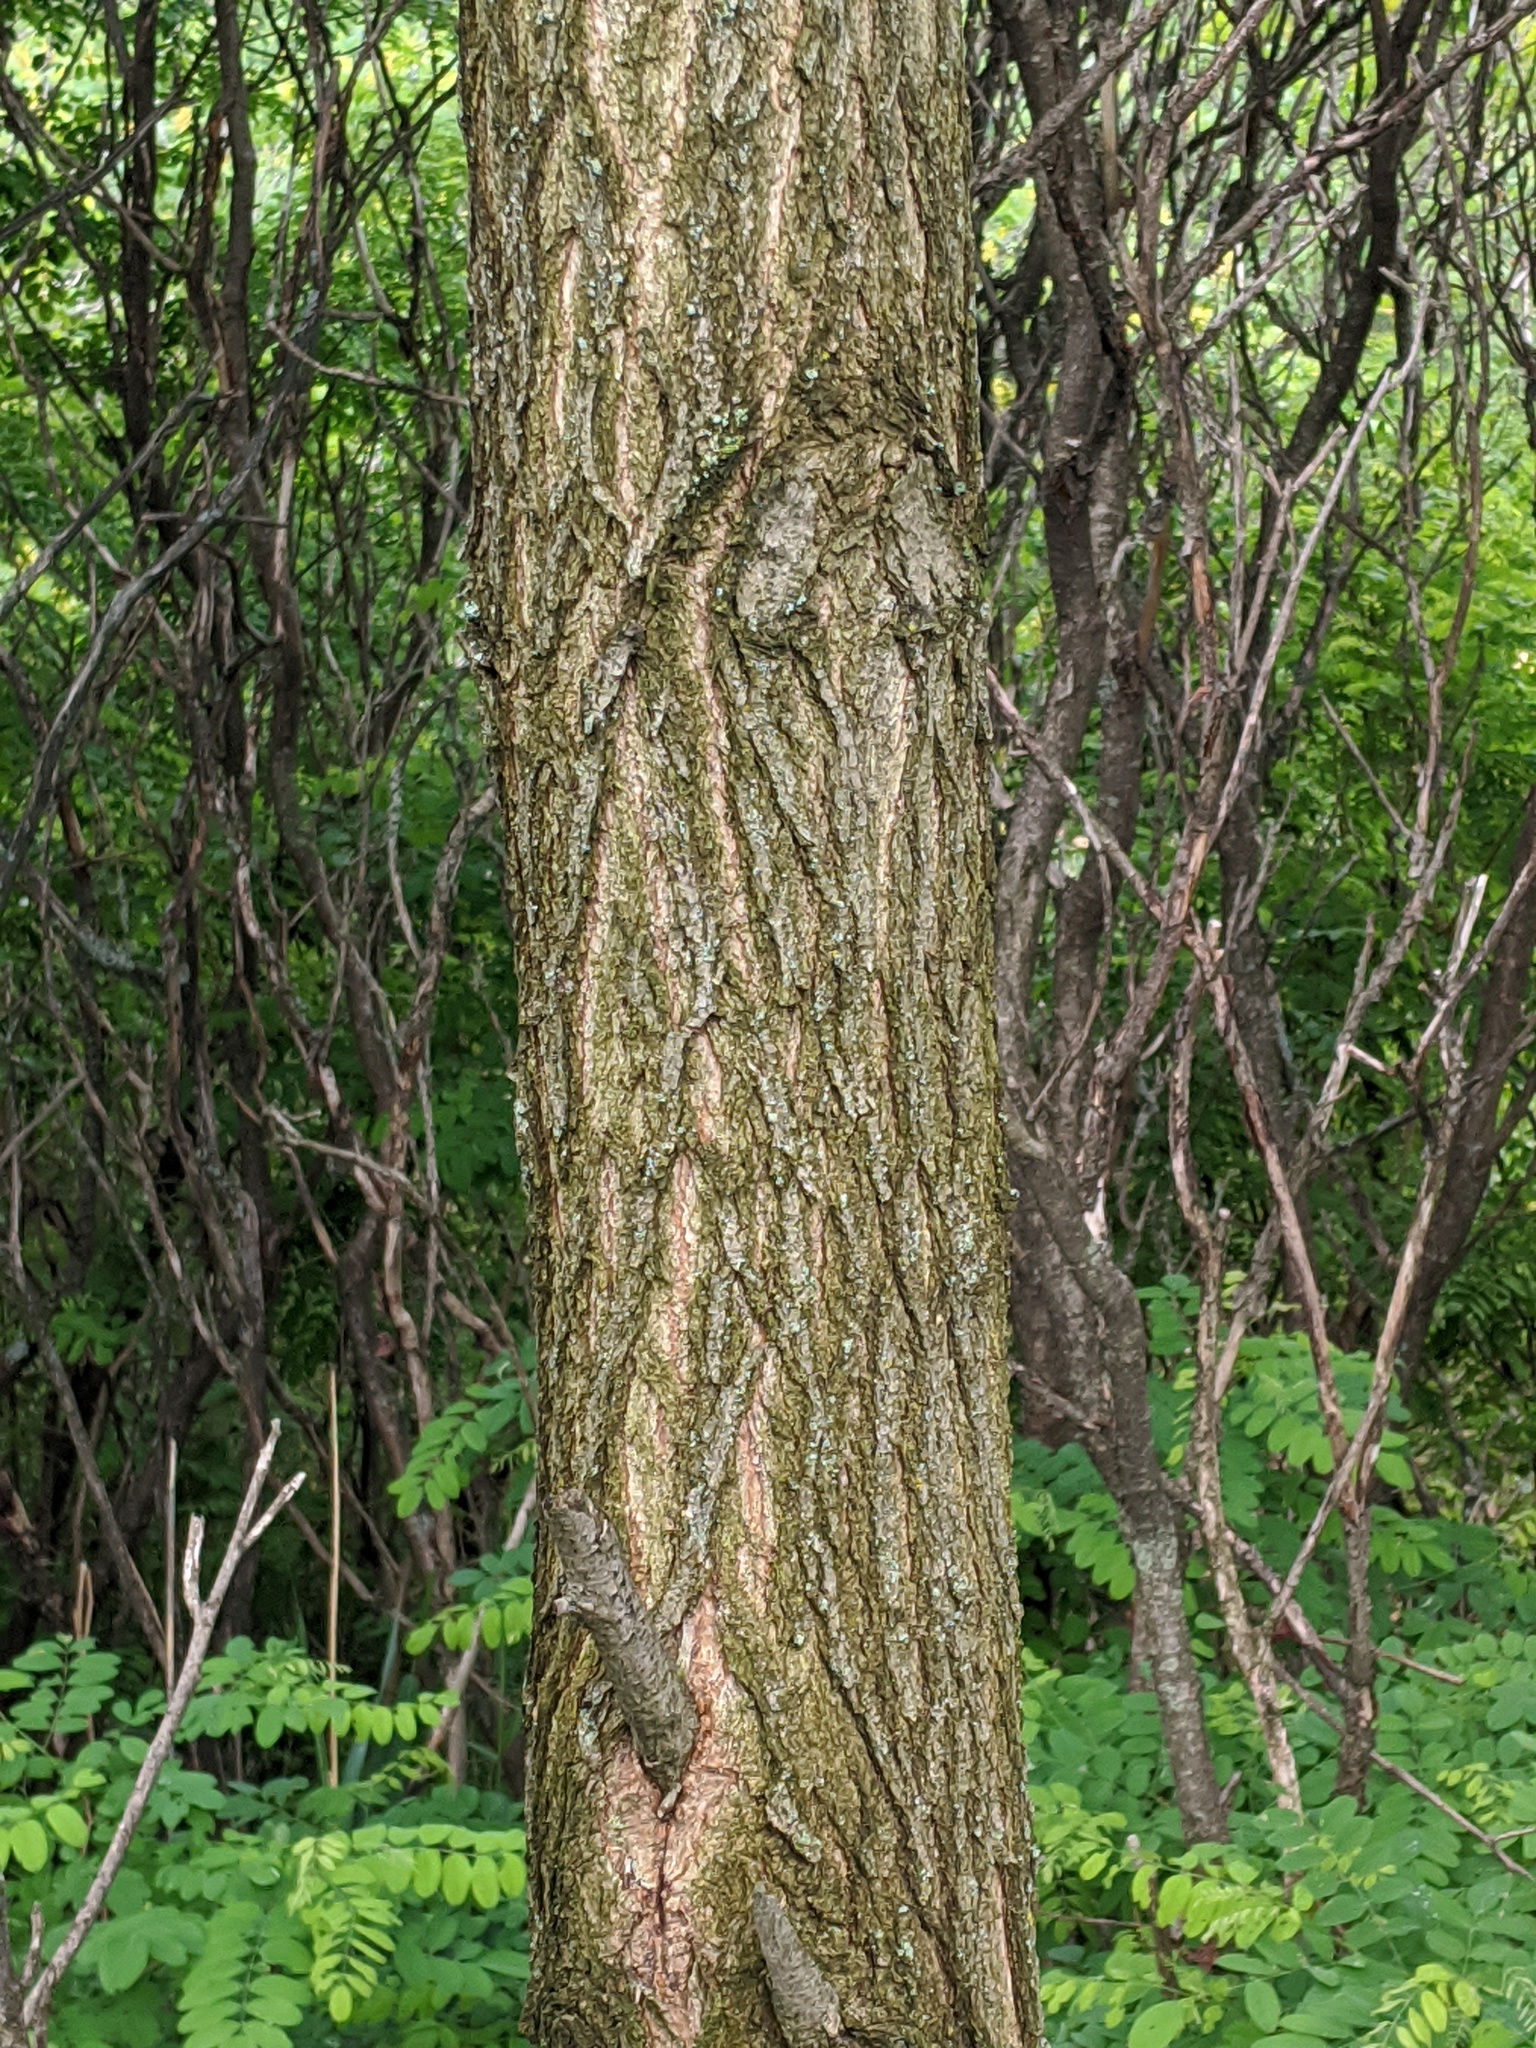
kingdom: Plantae
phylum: Tracheophyta
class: Magnoliopsida
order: Fabales
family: Fabaceae
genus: Robinia
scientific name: Robinia pseudoacacia
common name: Black locust
